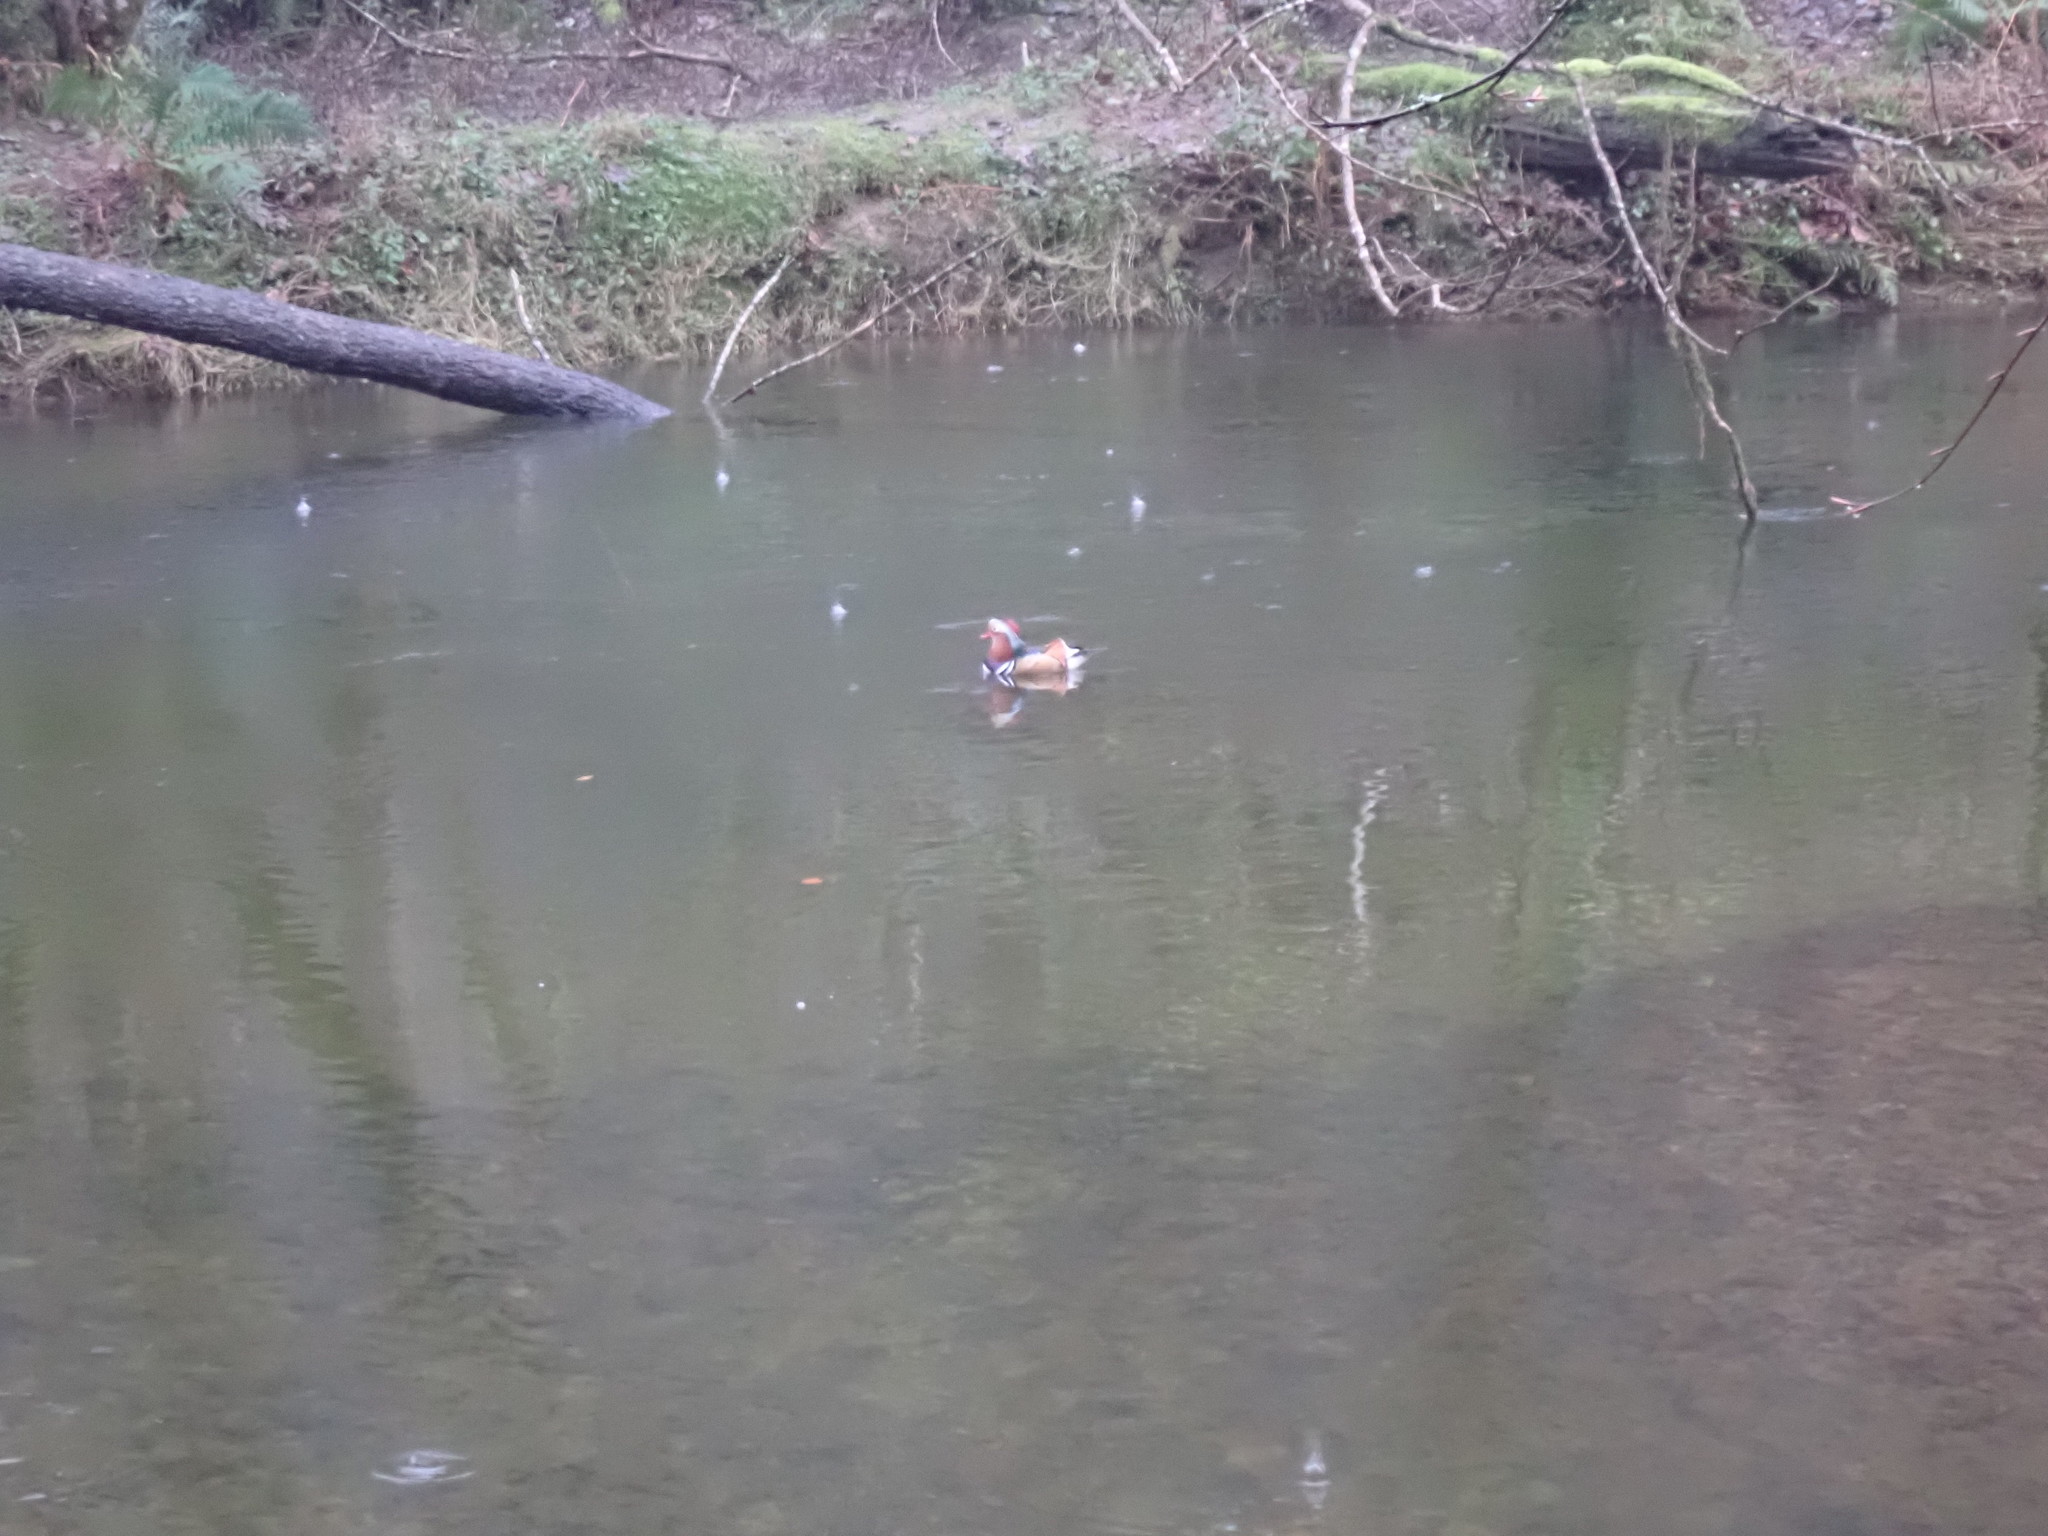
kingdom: Animalia
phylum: Chordata
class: Aves
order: Anseriformes
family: Anatidae
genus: Aix
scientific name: Aix galericulata
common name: Mandarin duck
